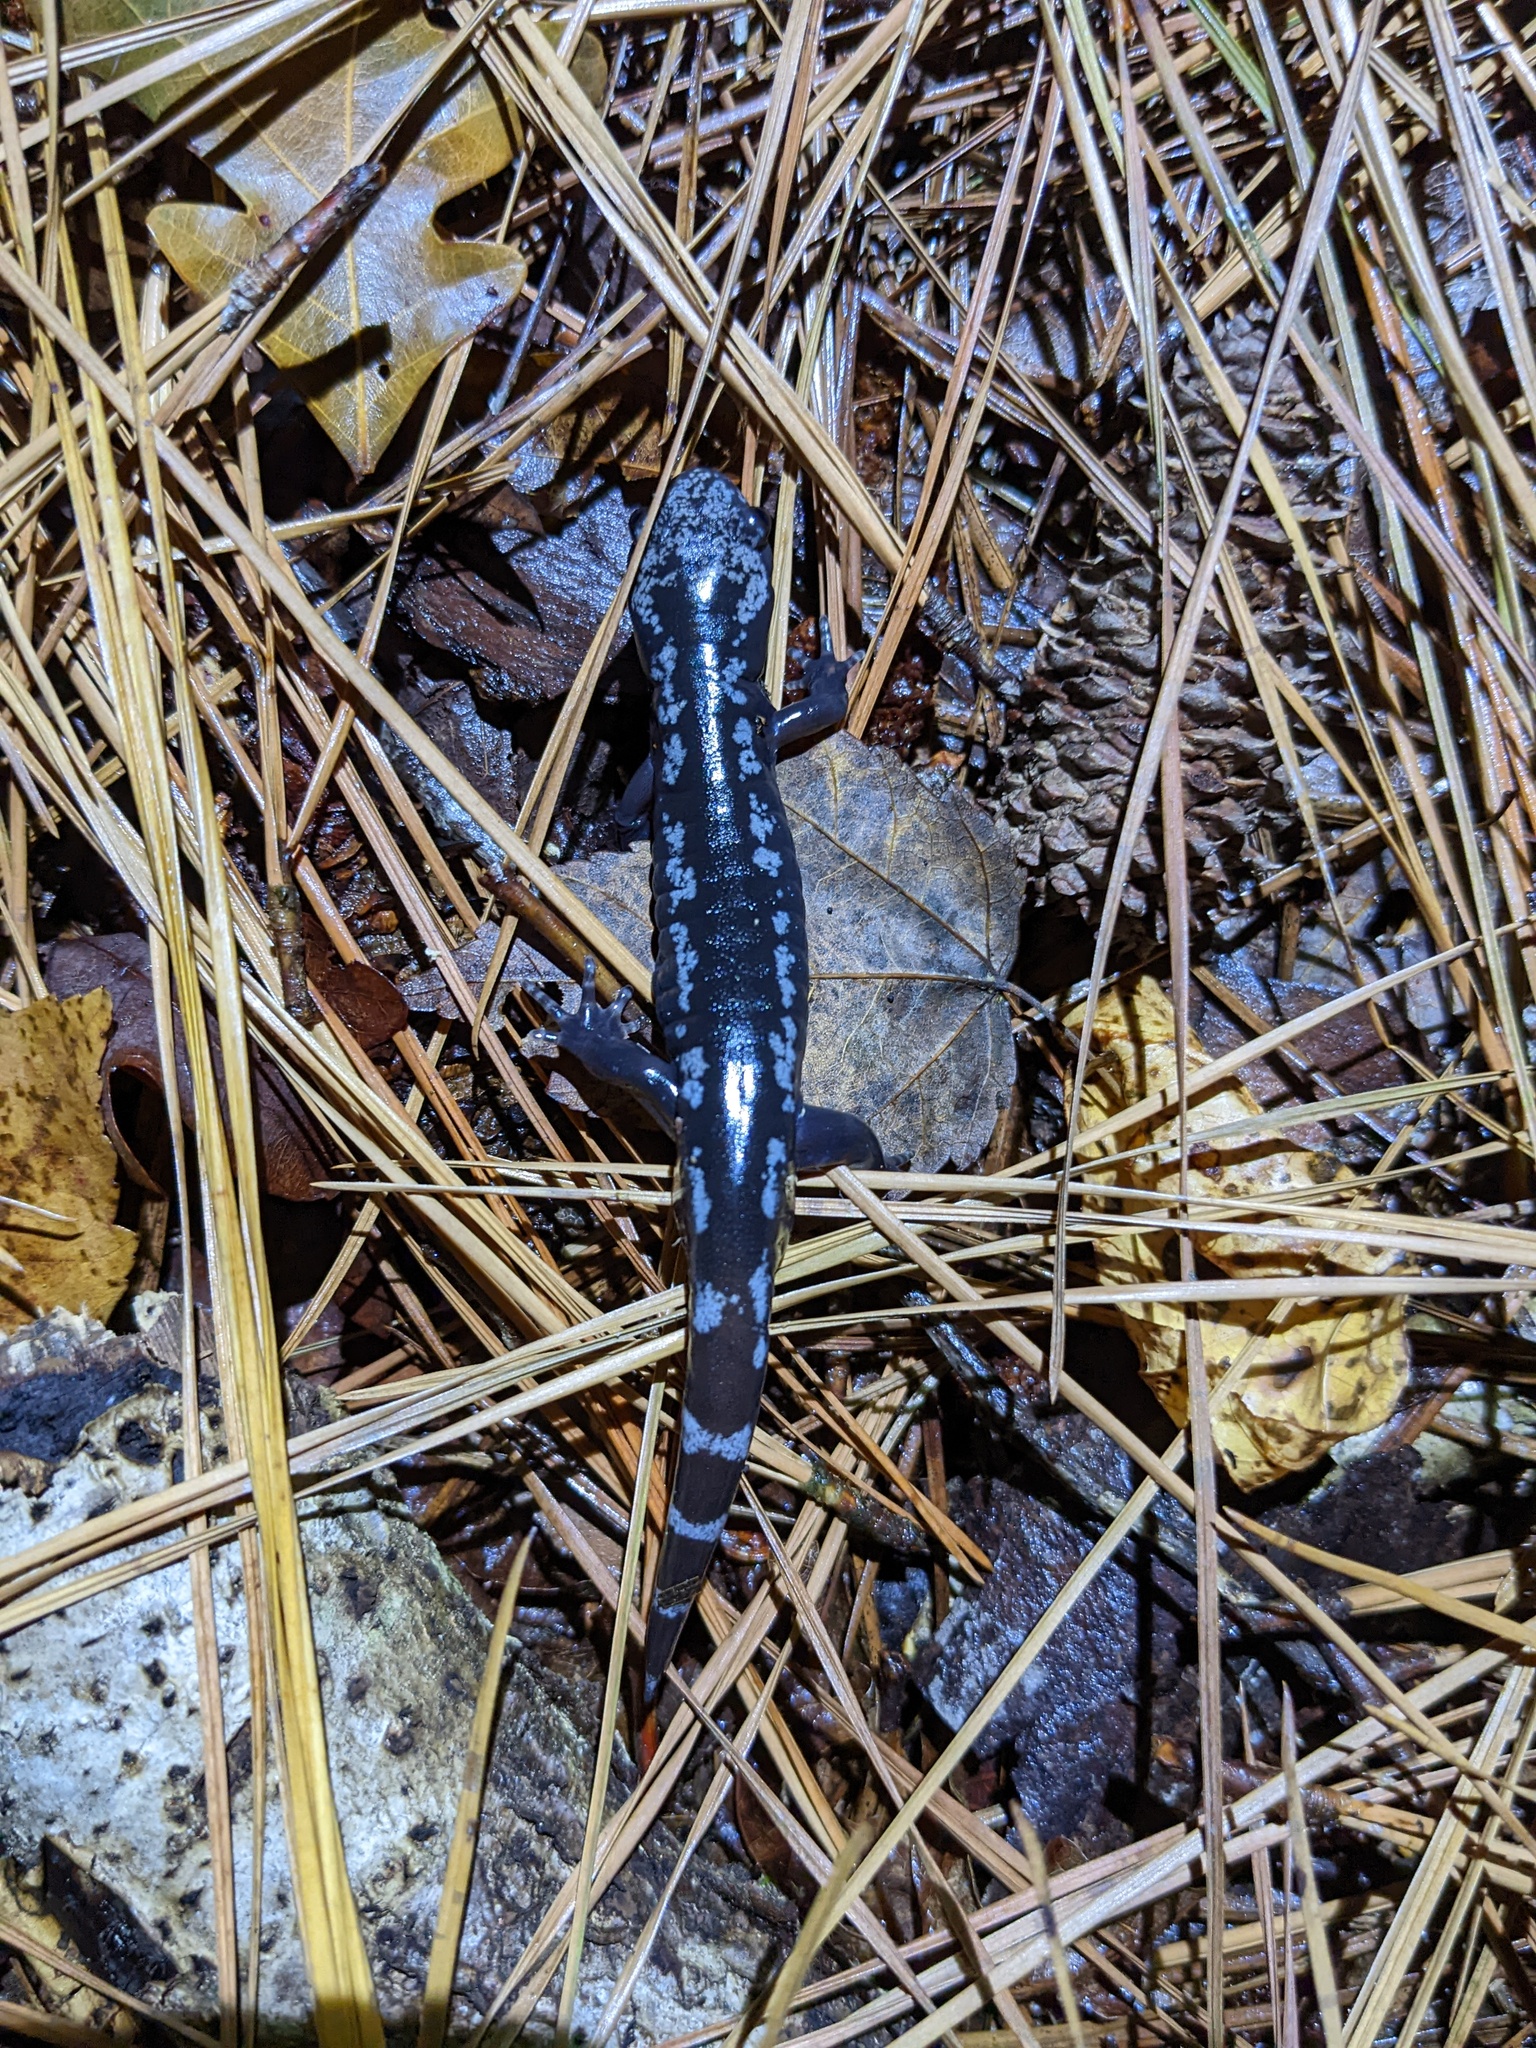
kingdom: Animalia
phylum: Chordata
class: Amphibia
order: Caudata
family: Ambystomatidae
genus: Ambystoma
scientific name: Ambystoma opacum
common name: Marbled salamander
